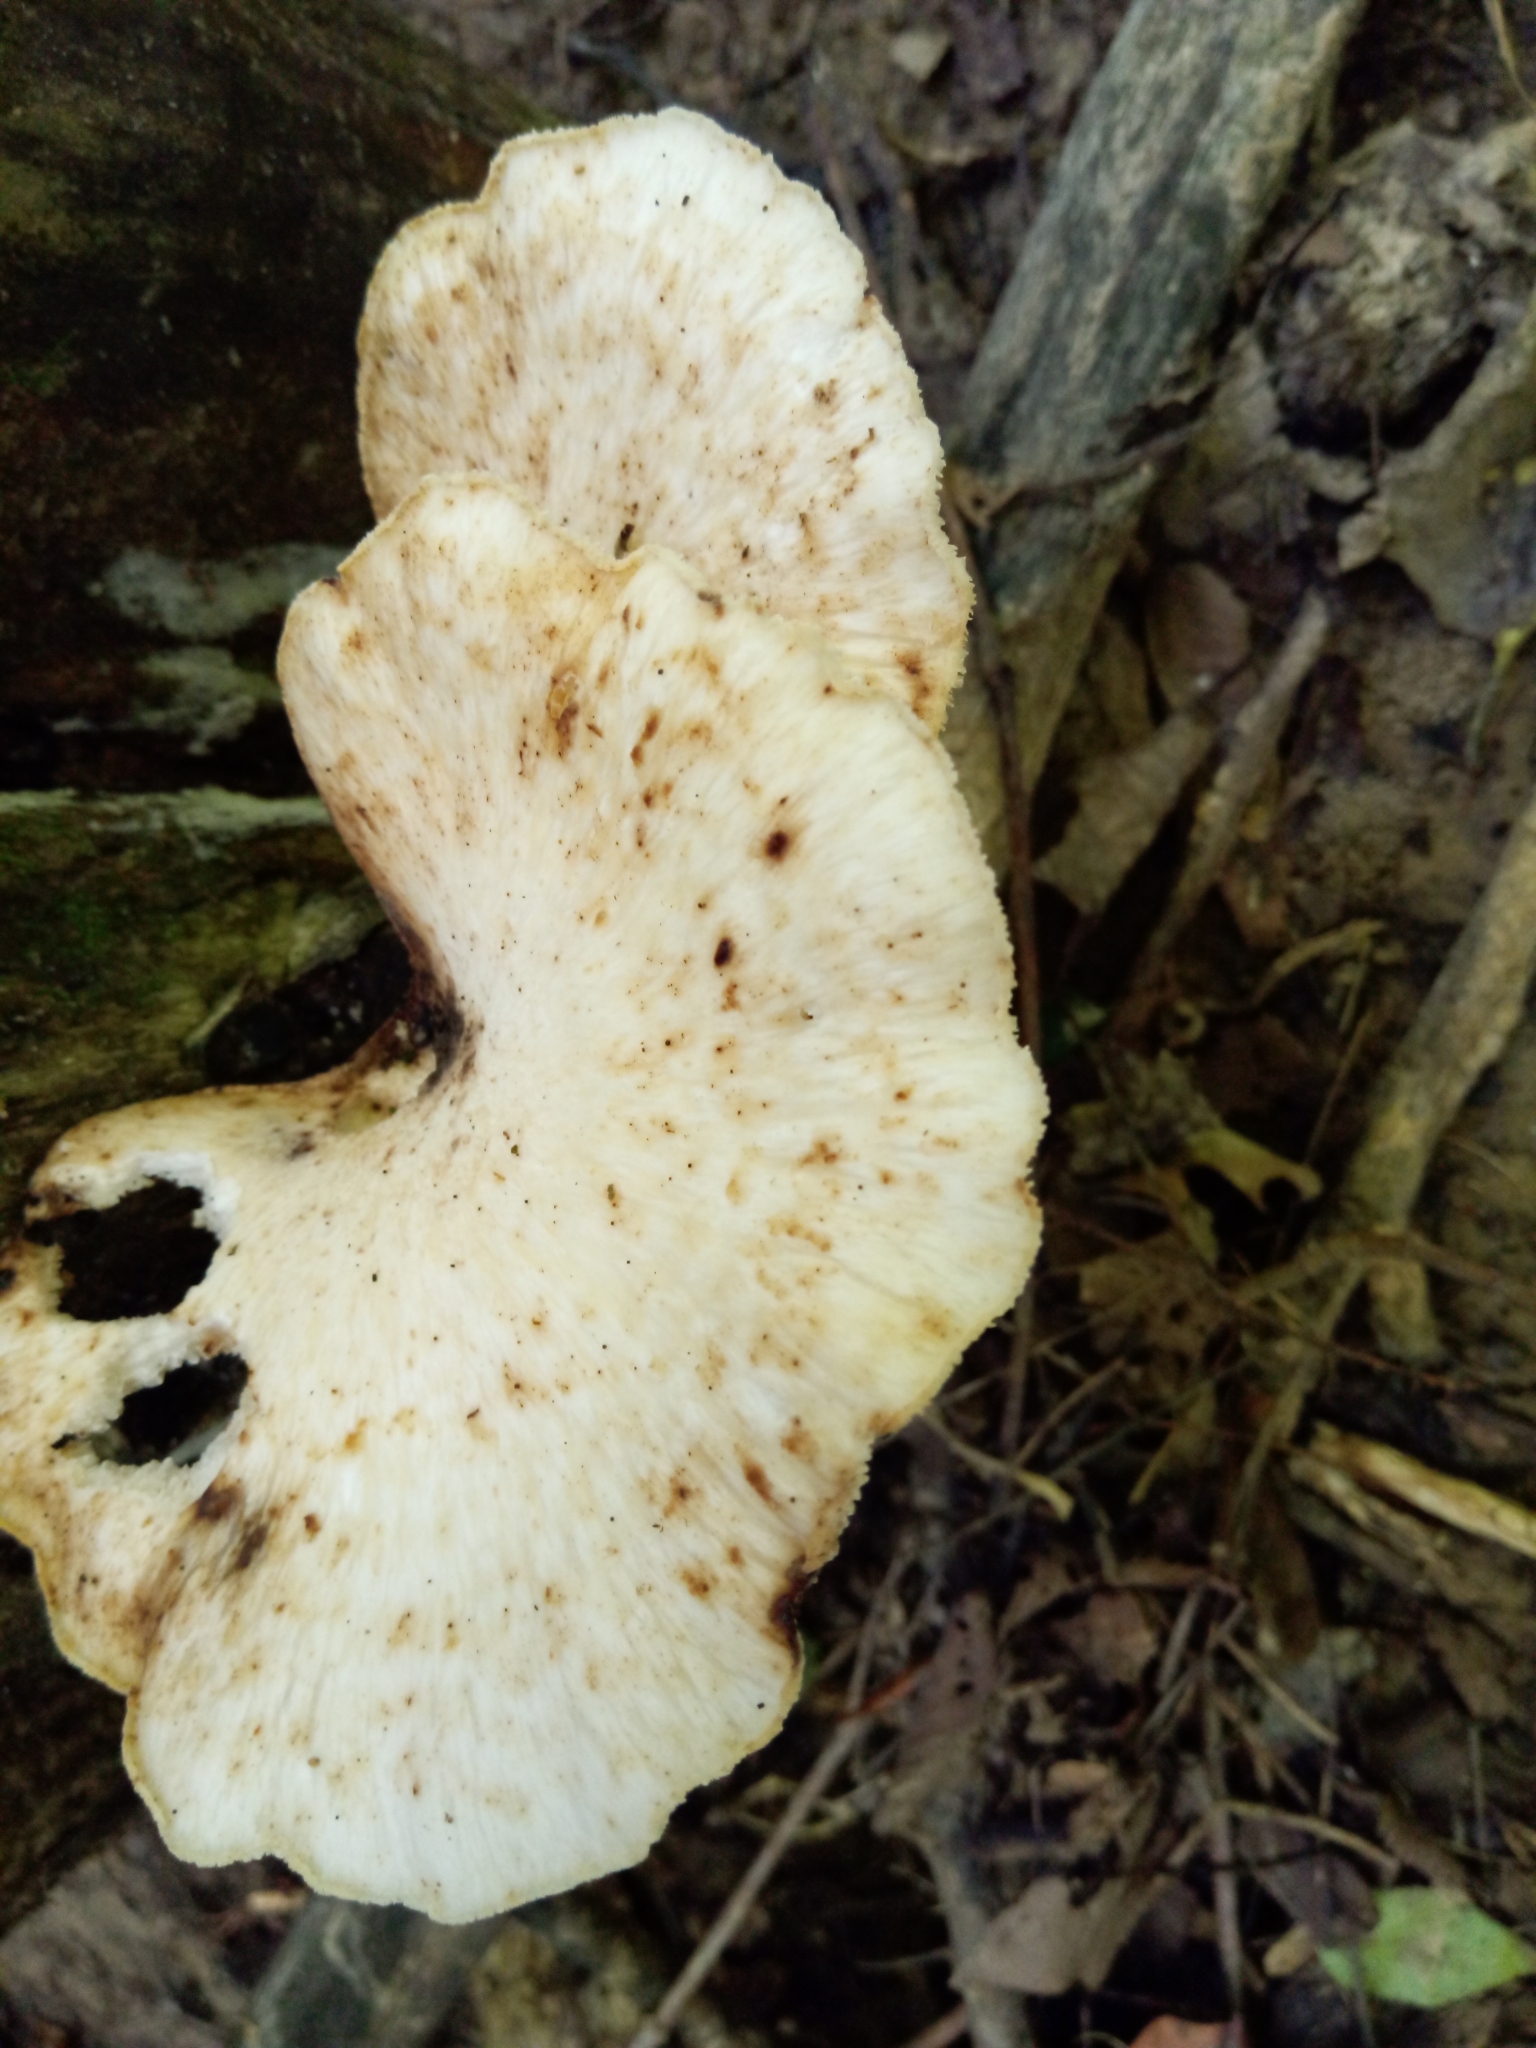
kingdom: Fungi
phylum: Basidiomycota
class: Agaricomycetes
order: Polyporales
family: Polyporaceae
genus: Cerioporus
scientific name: Cerioporus squamosus
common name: Dryad's saddle
